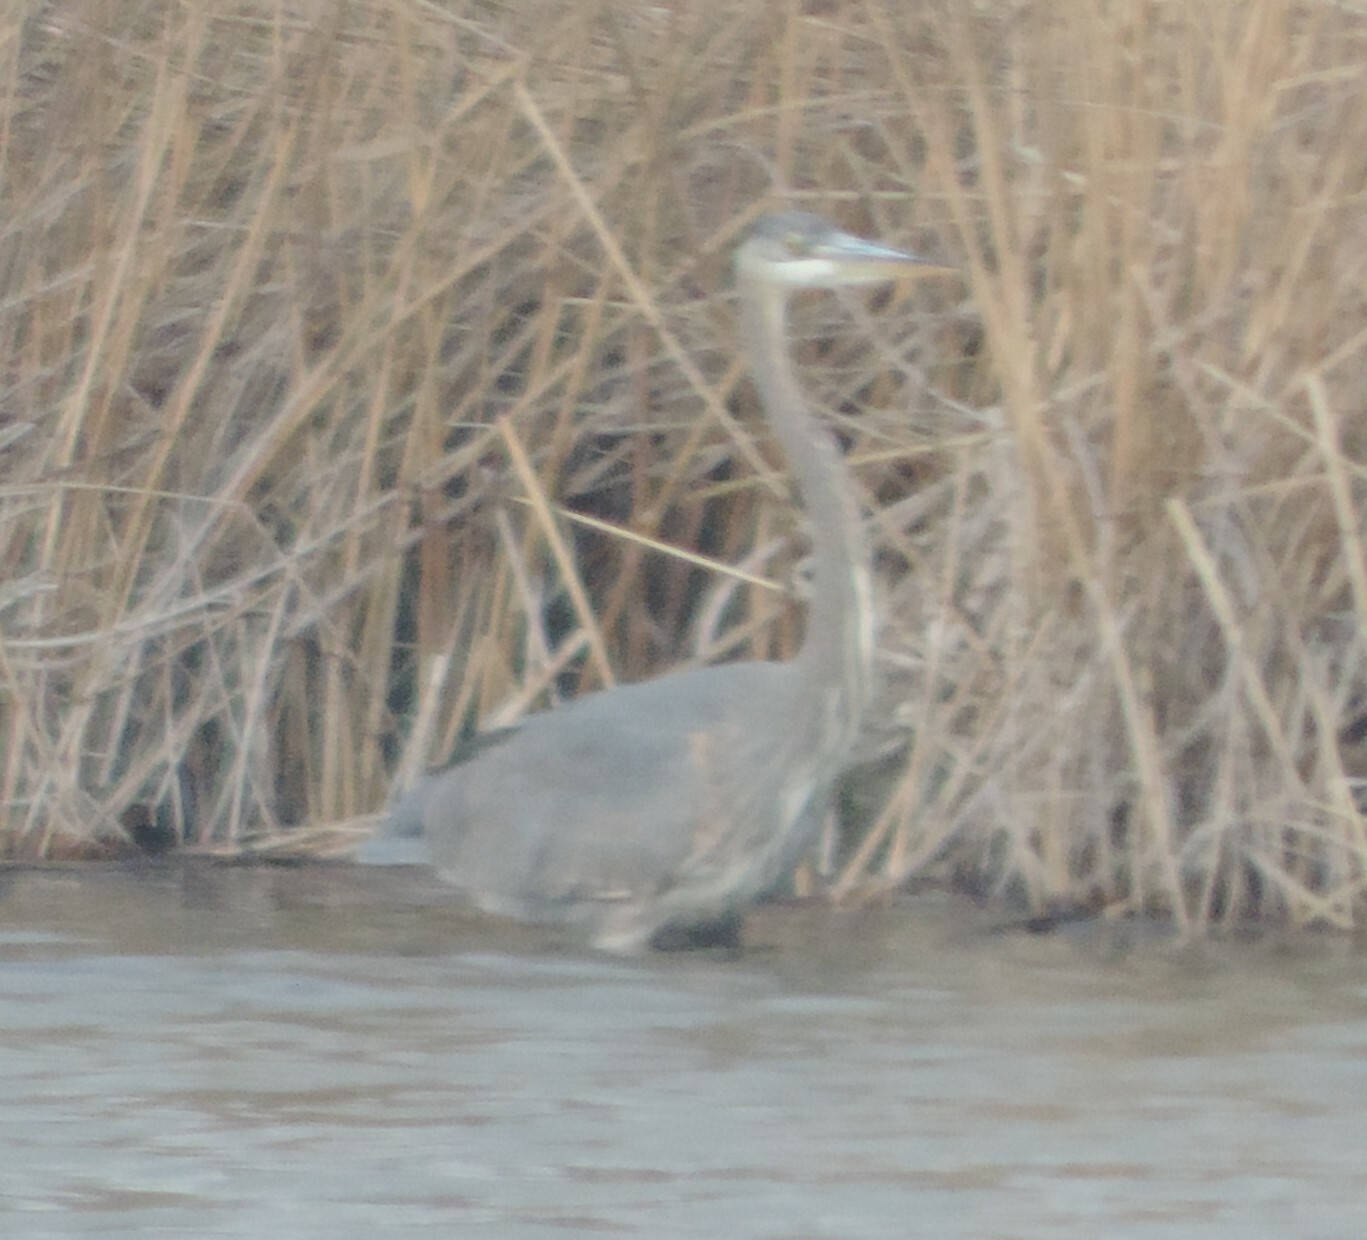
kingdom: Animalia
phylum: Chordata
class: Aves
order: Pelecaniformes
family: Ardeidae
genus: Ardea
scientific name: Ardea herodias
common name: Great blue heron
